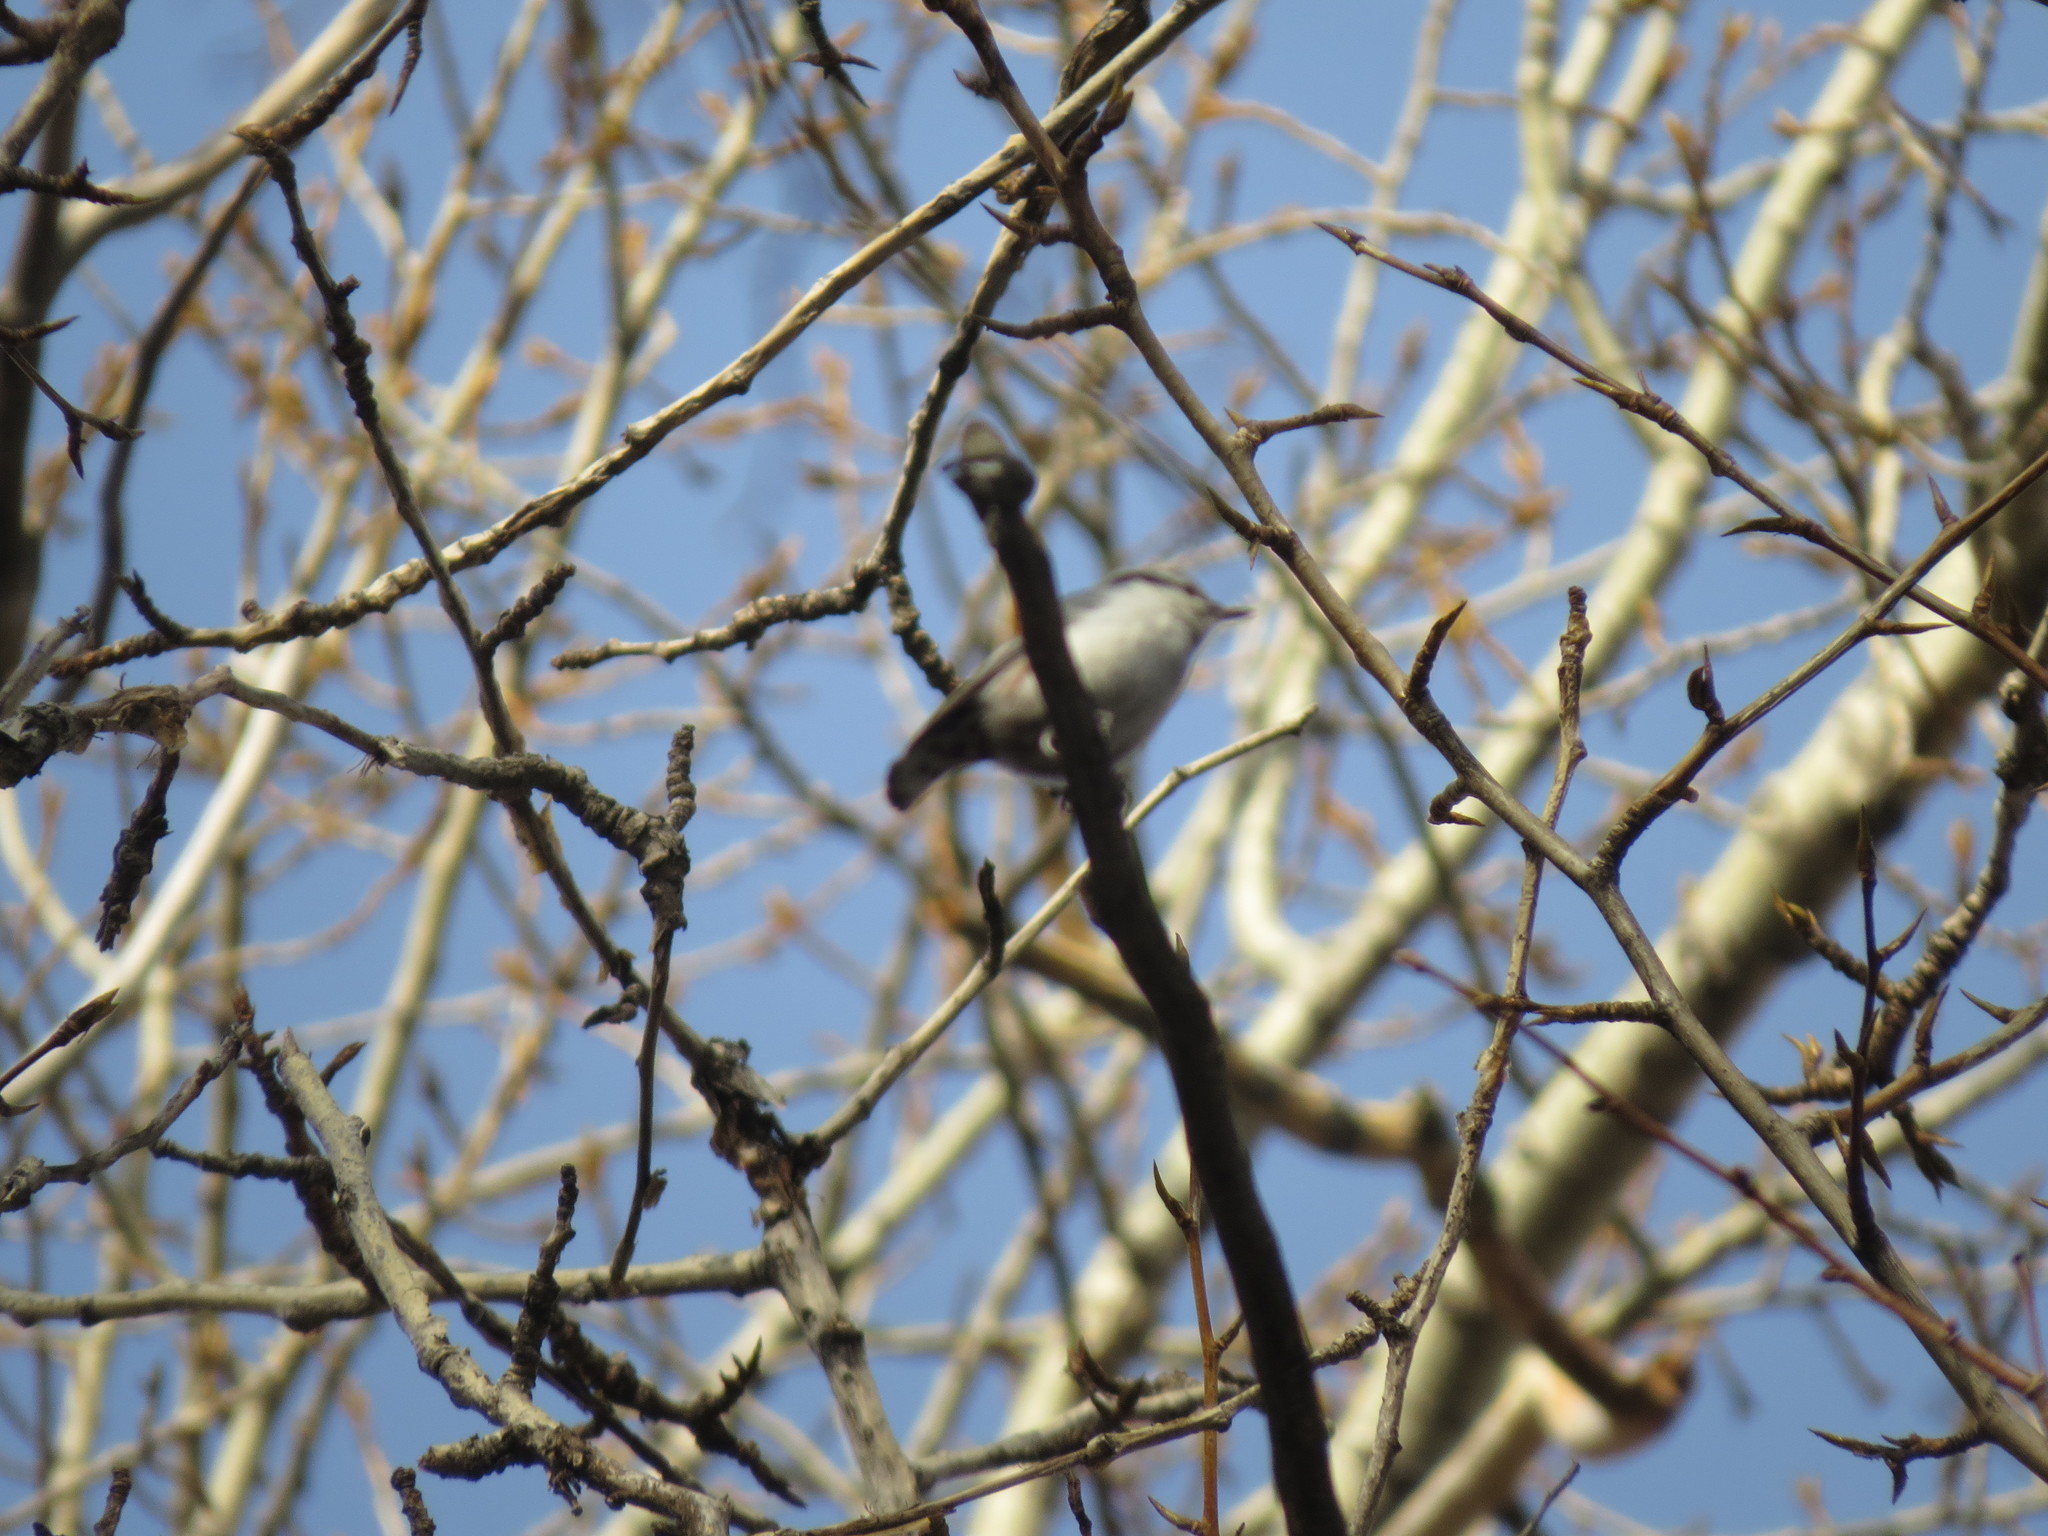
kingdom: Animalia
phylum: Chordata
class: Aves
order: Passeriformes
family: Sittidae
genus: Sitta
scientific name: Sitta europaea
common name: Eurasian nuthatch
